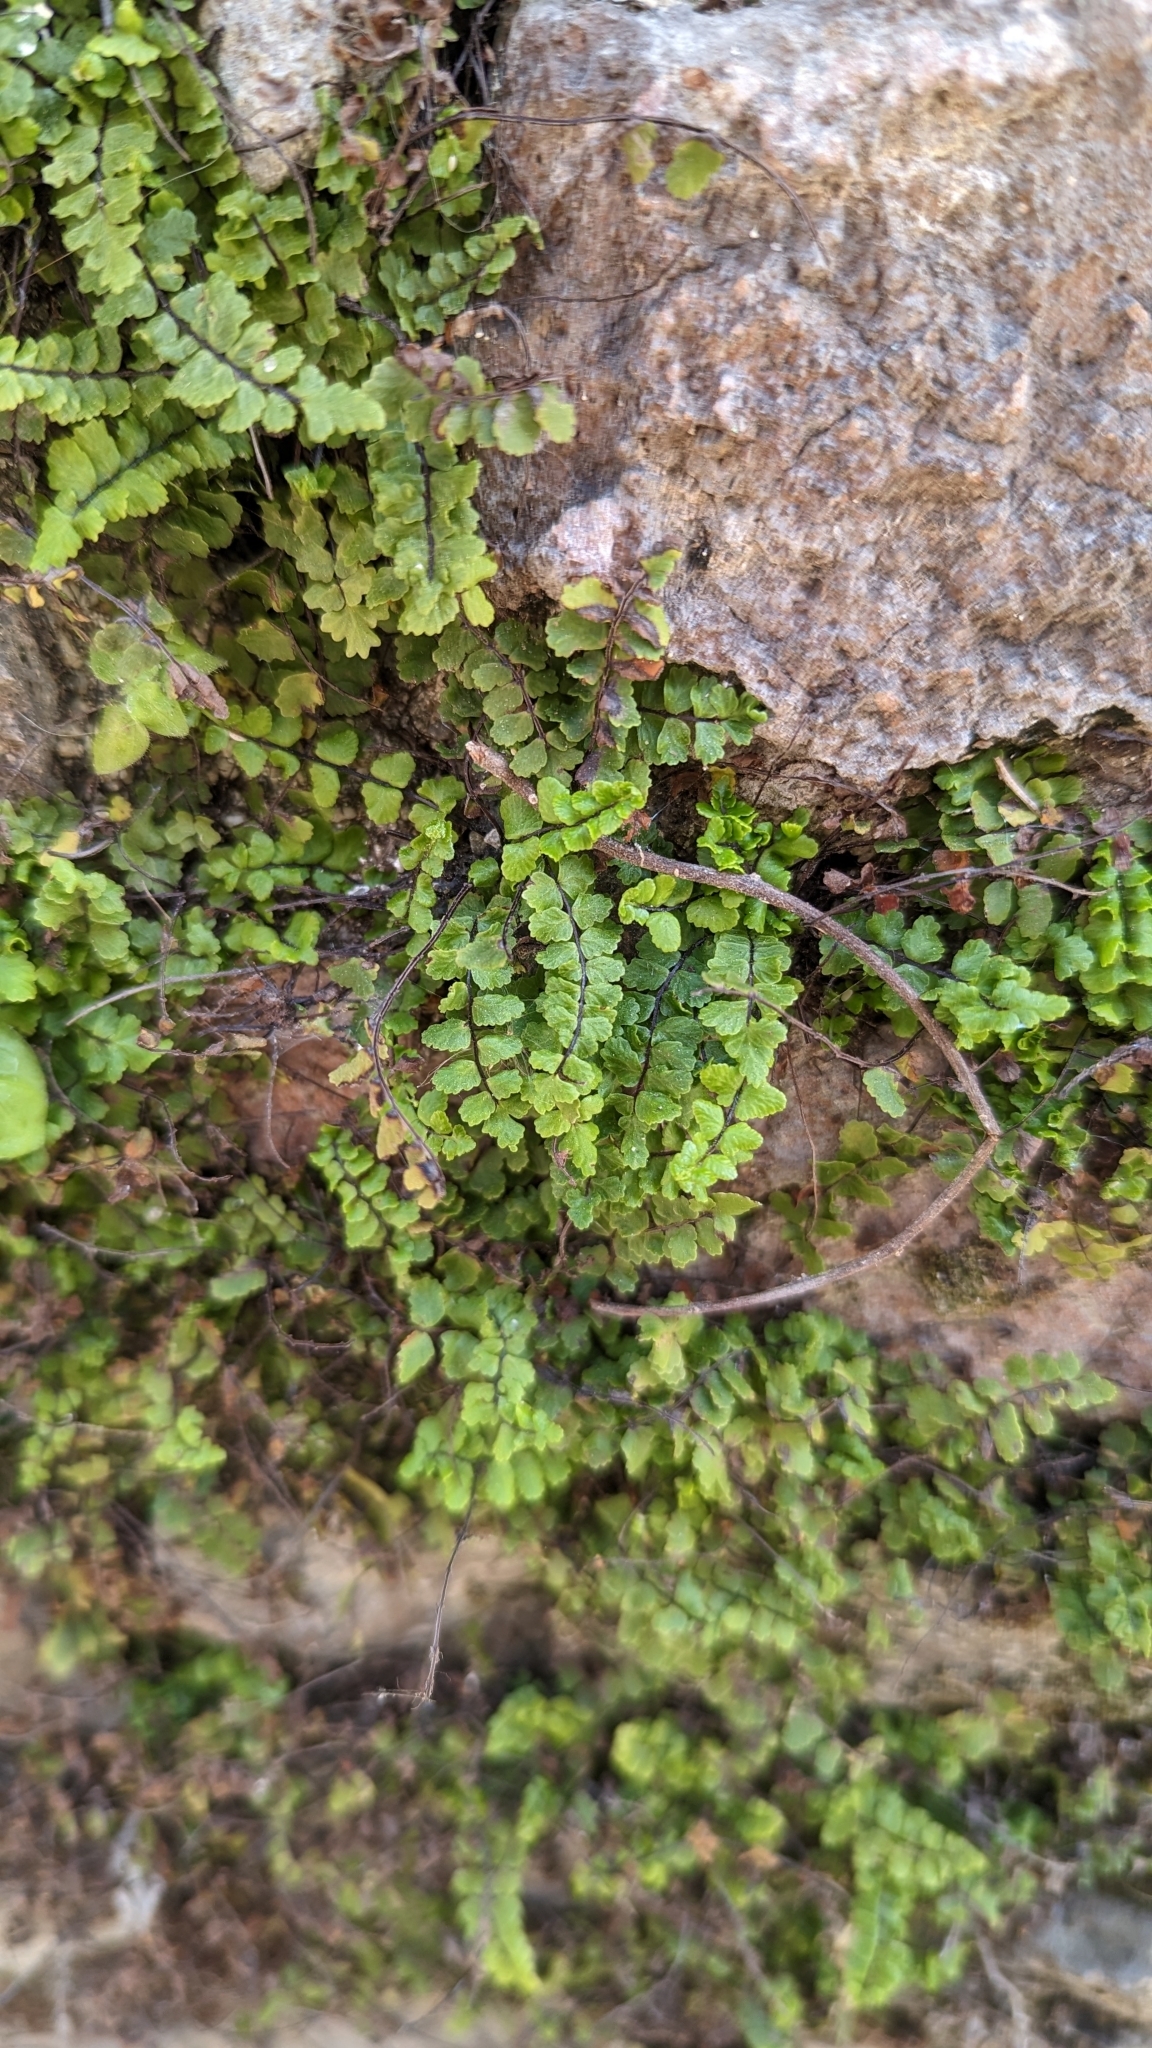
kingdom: Plantae
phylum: Tracheophyta
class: Polypodiopsida
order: Polypodiales
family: Aspleniaceae
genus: Asplenium
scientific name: Asplenium trichomanes
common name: Maidenhair spleenwort
